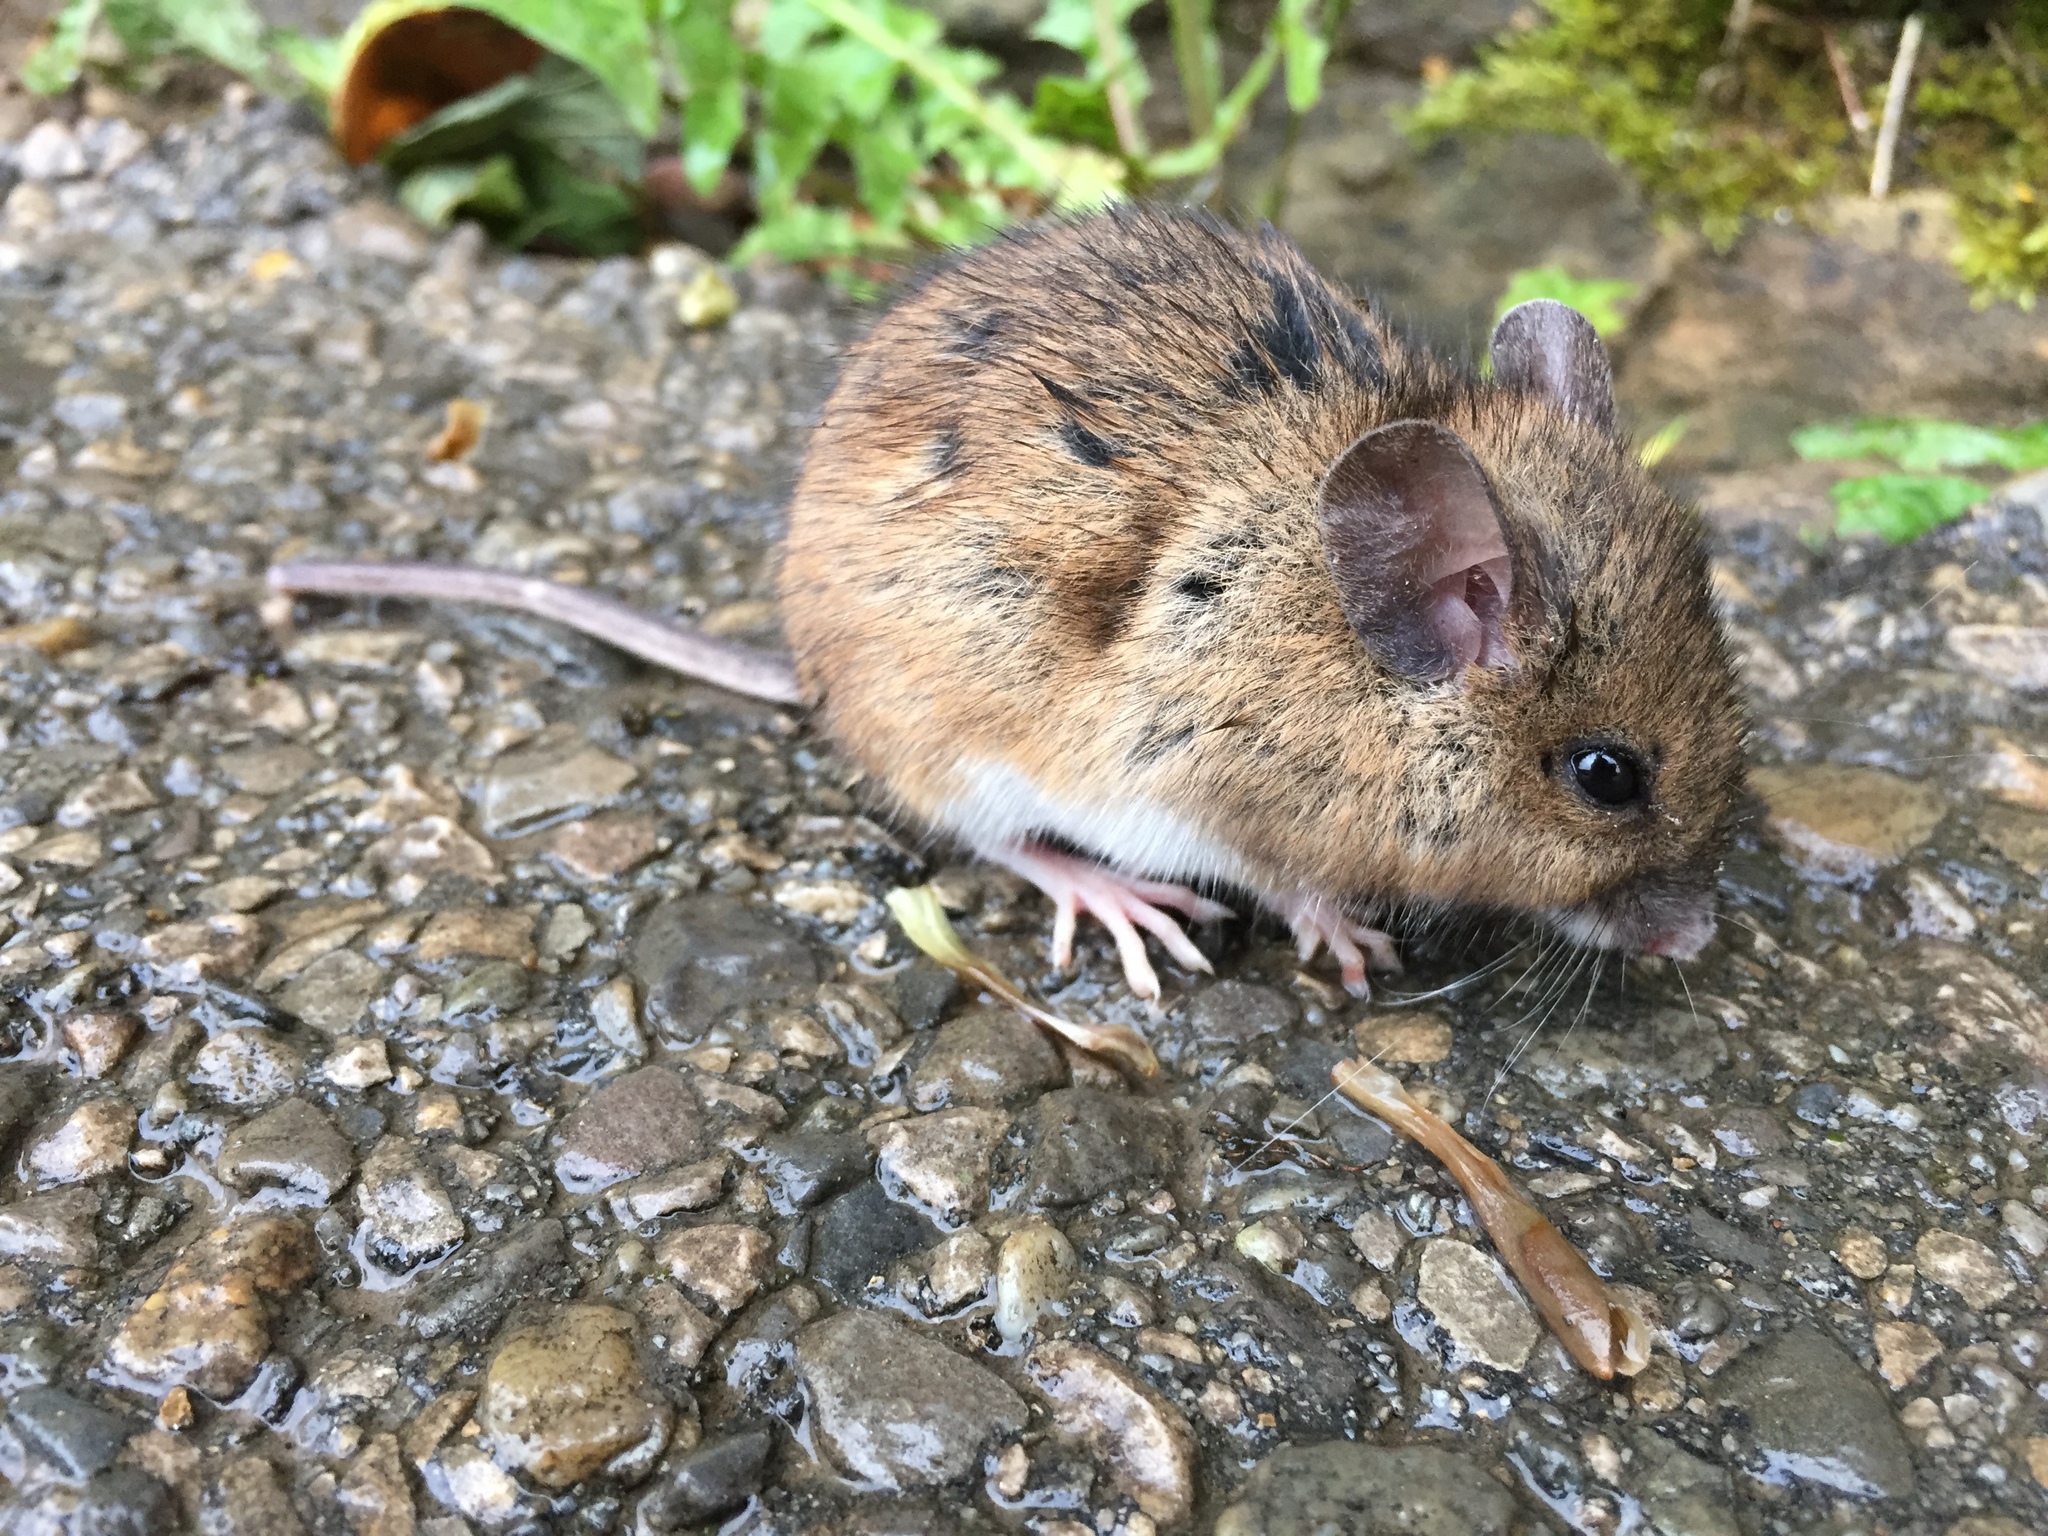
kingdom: Animalia
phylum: Chordata
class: Mammalia
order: Rodentia
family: Muridae
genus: Apodemus
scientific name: Apodemus flavicollis
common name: Yellow-necked field mouse
